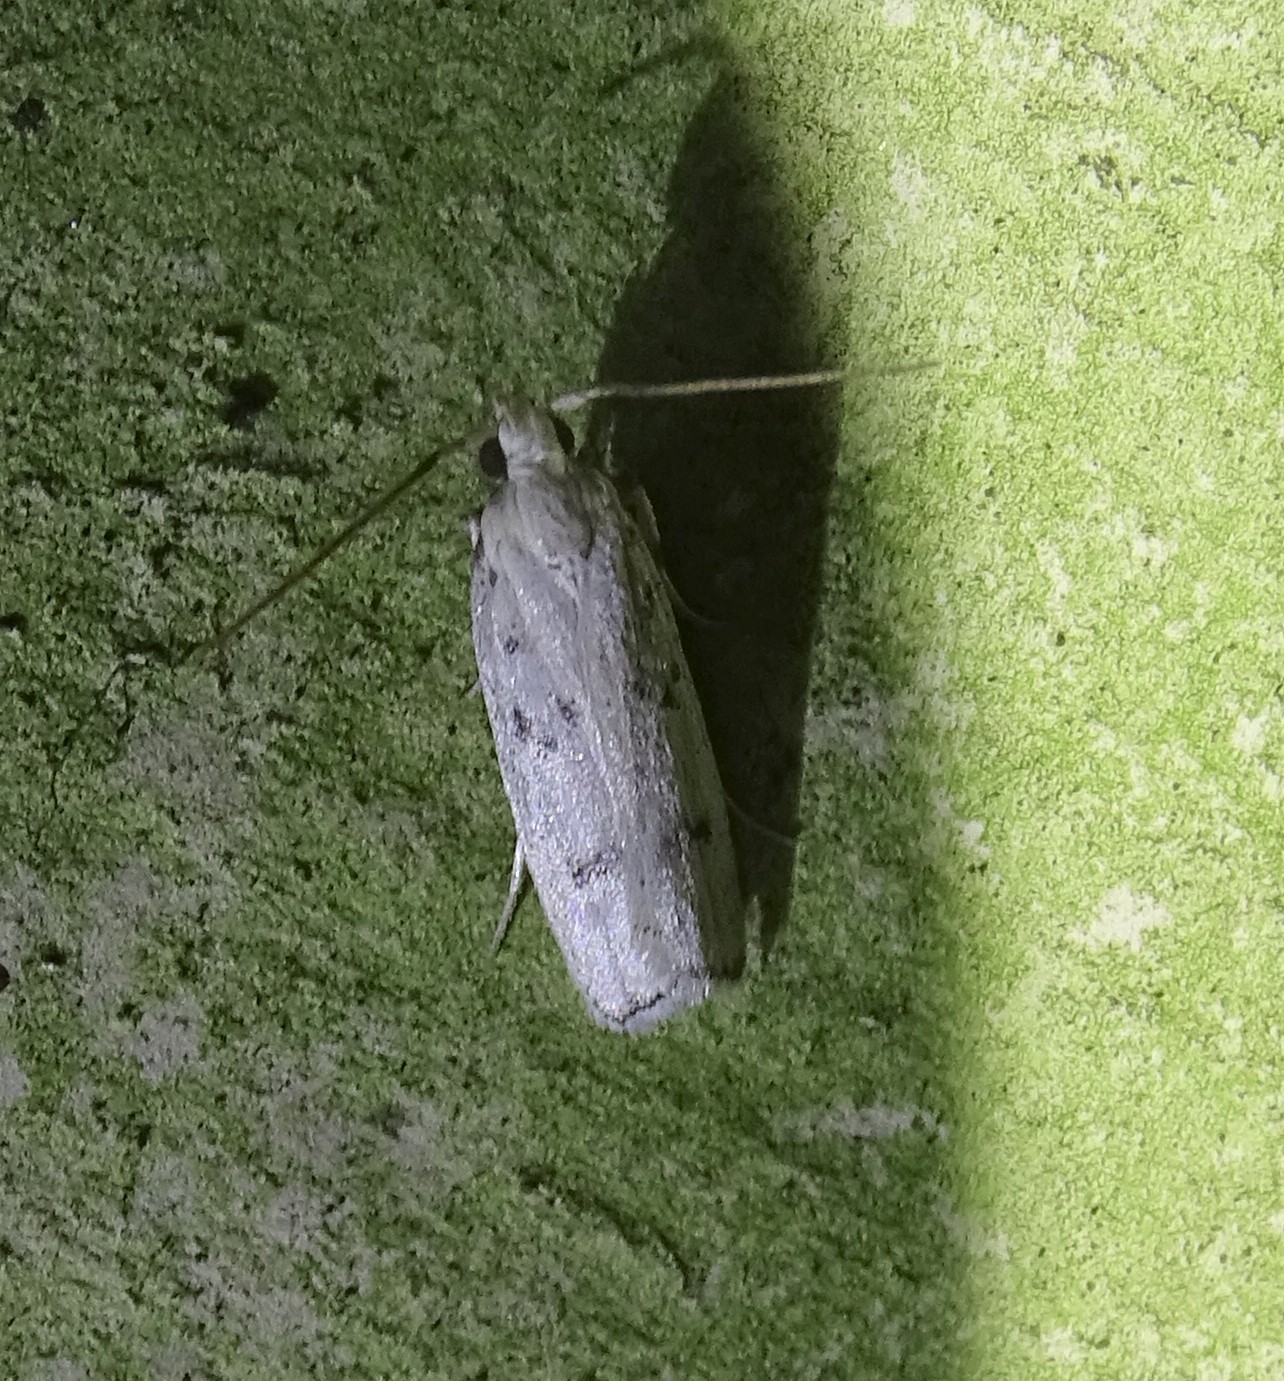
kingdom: Animalia
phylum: Arthropoda
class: Insecta
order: Lepidoptera
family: Autostichidae
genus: Glyphidocera
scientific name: Glyphidocera lactiflosella
